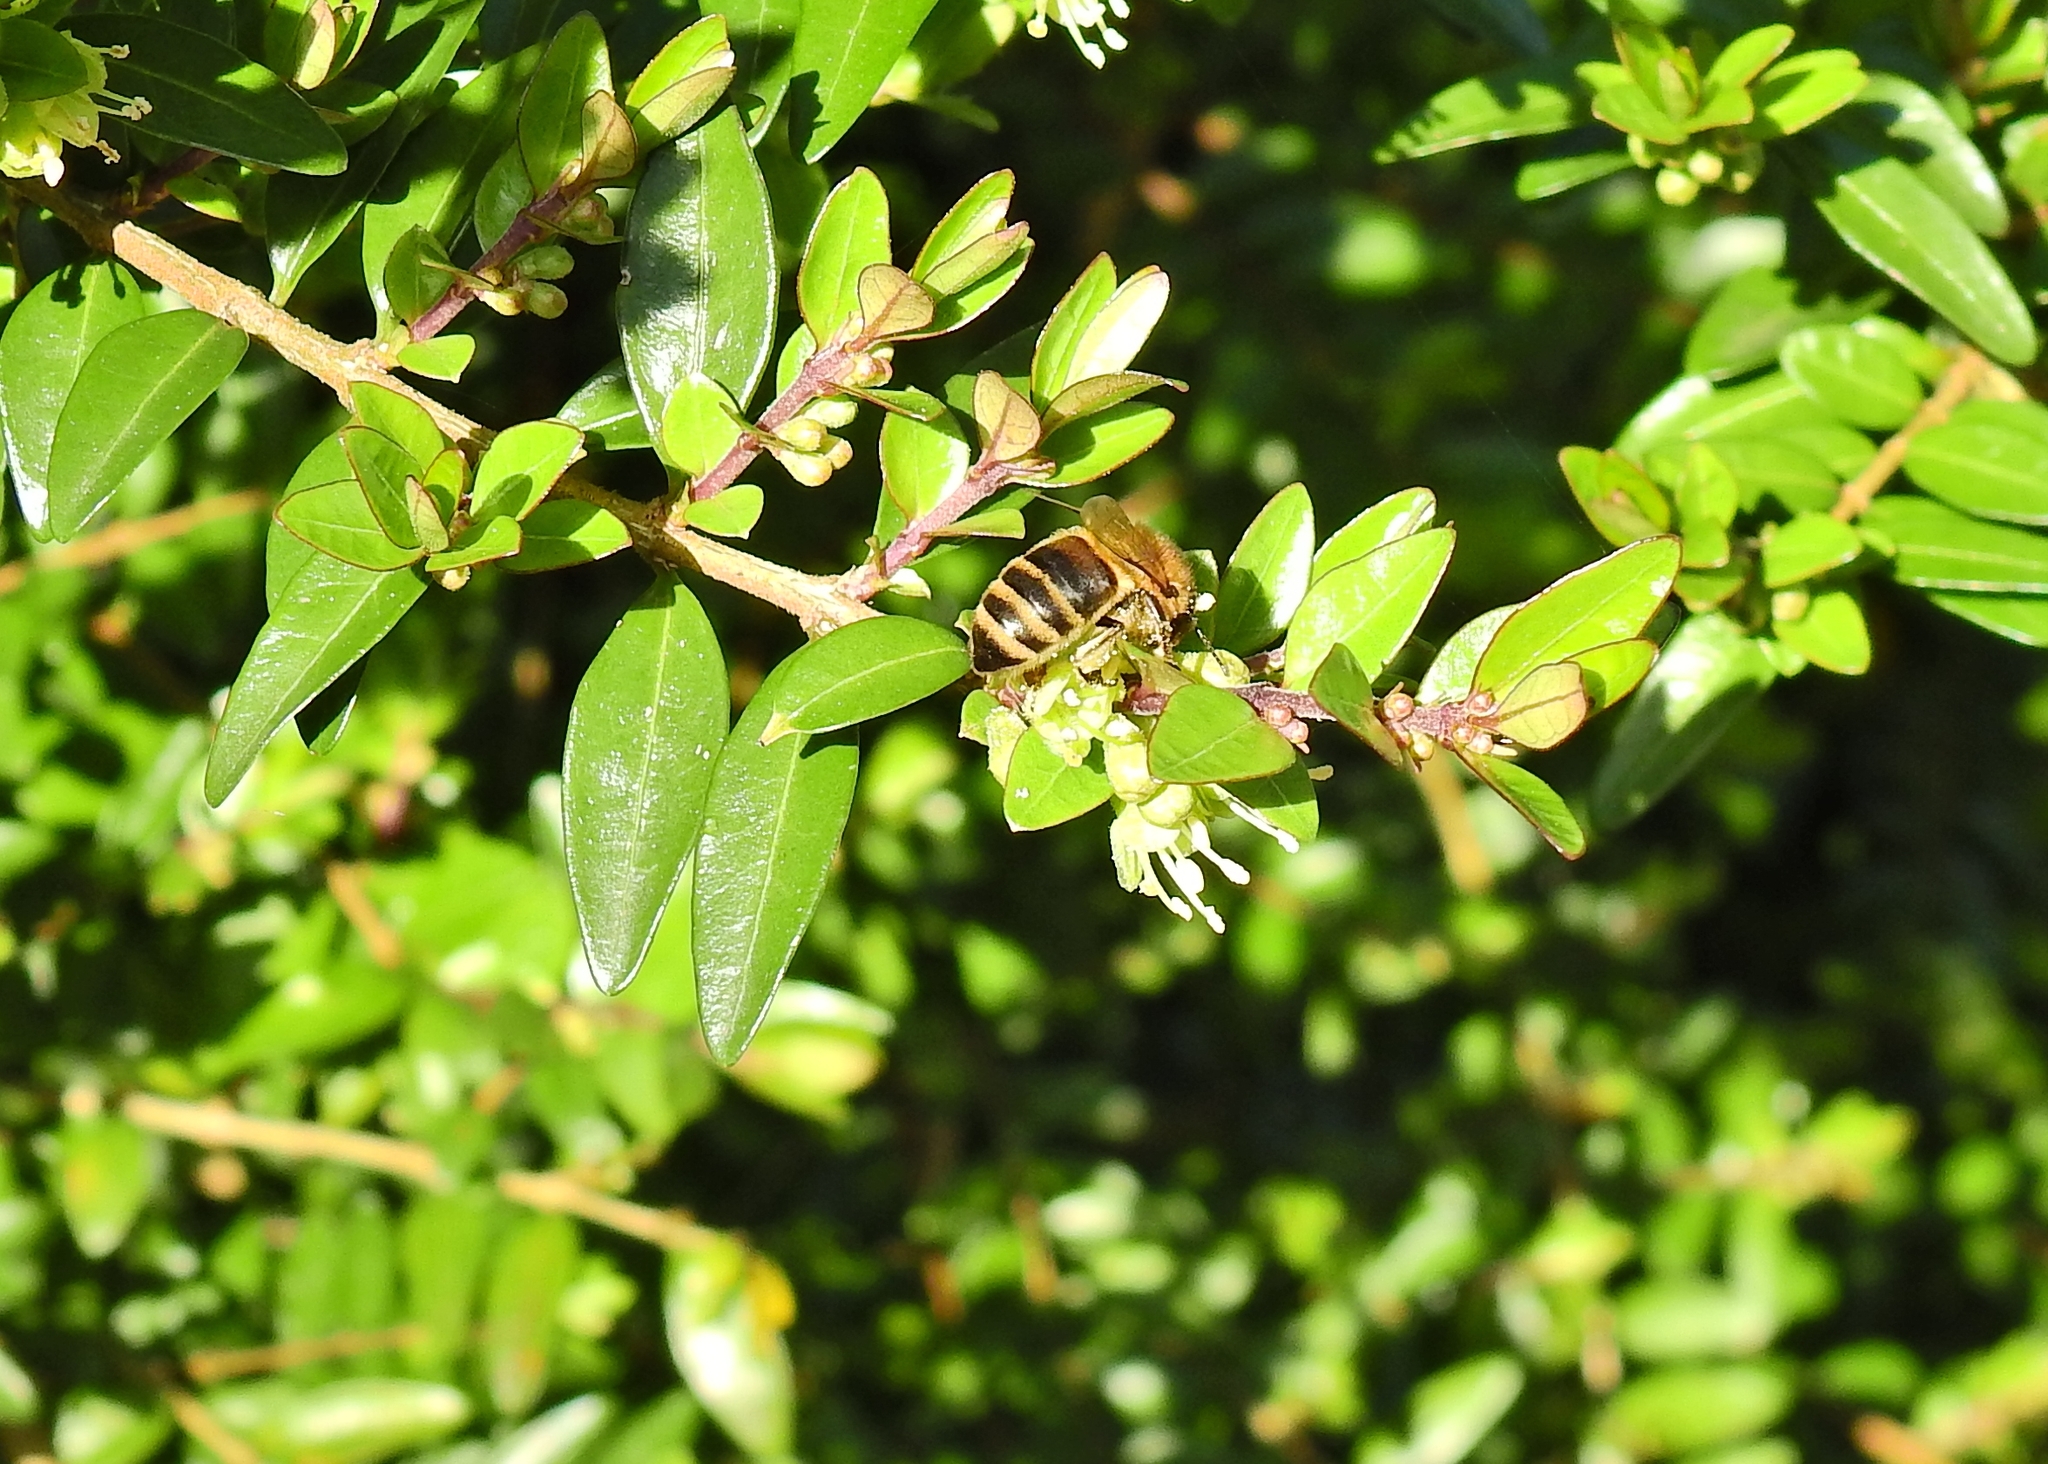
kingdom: Animalia
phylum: Arthropoda
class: Insecta
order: Hymenoptera
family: Apidae
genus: Apis
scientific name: Apis mellifera
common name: Honey bee
